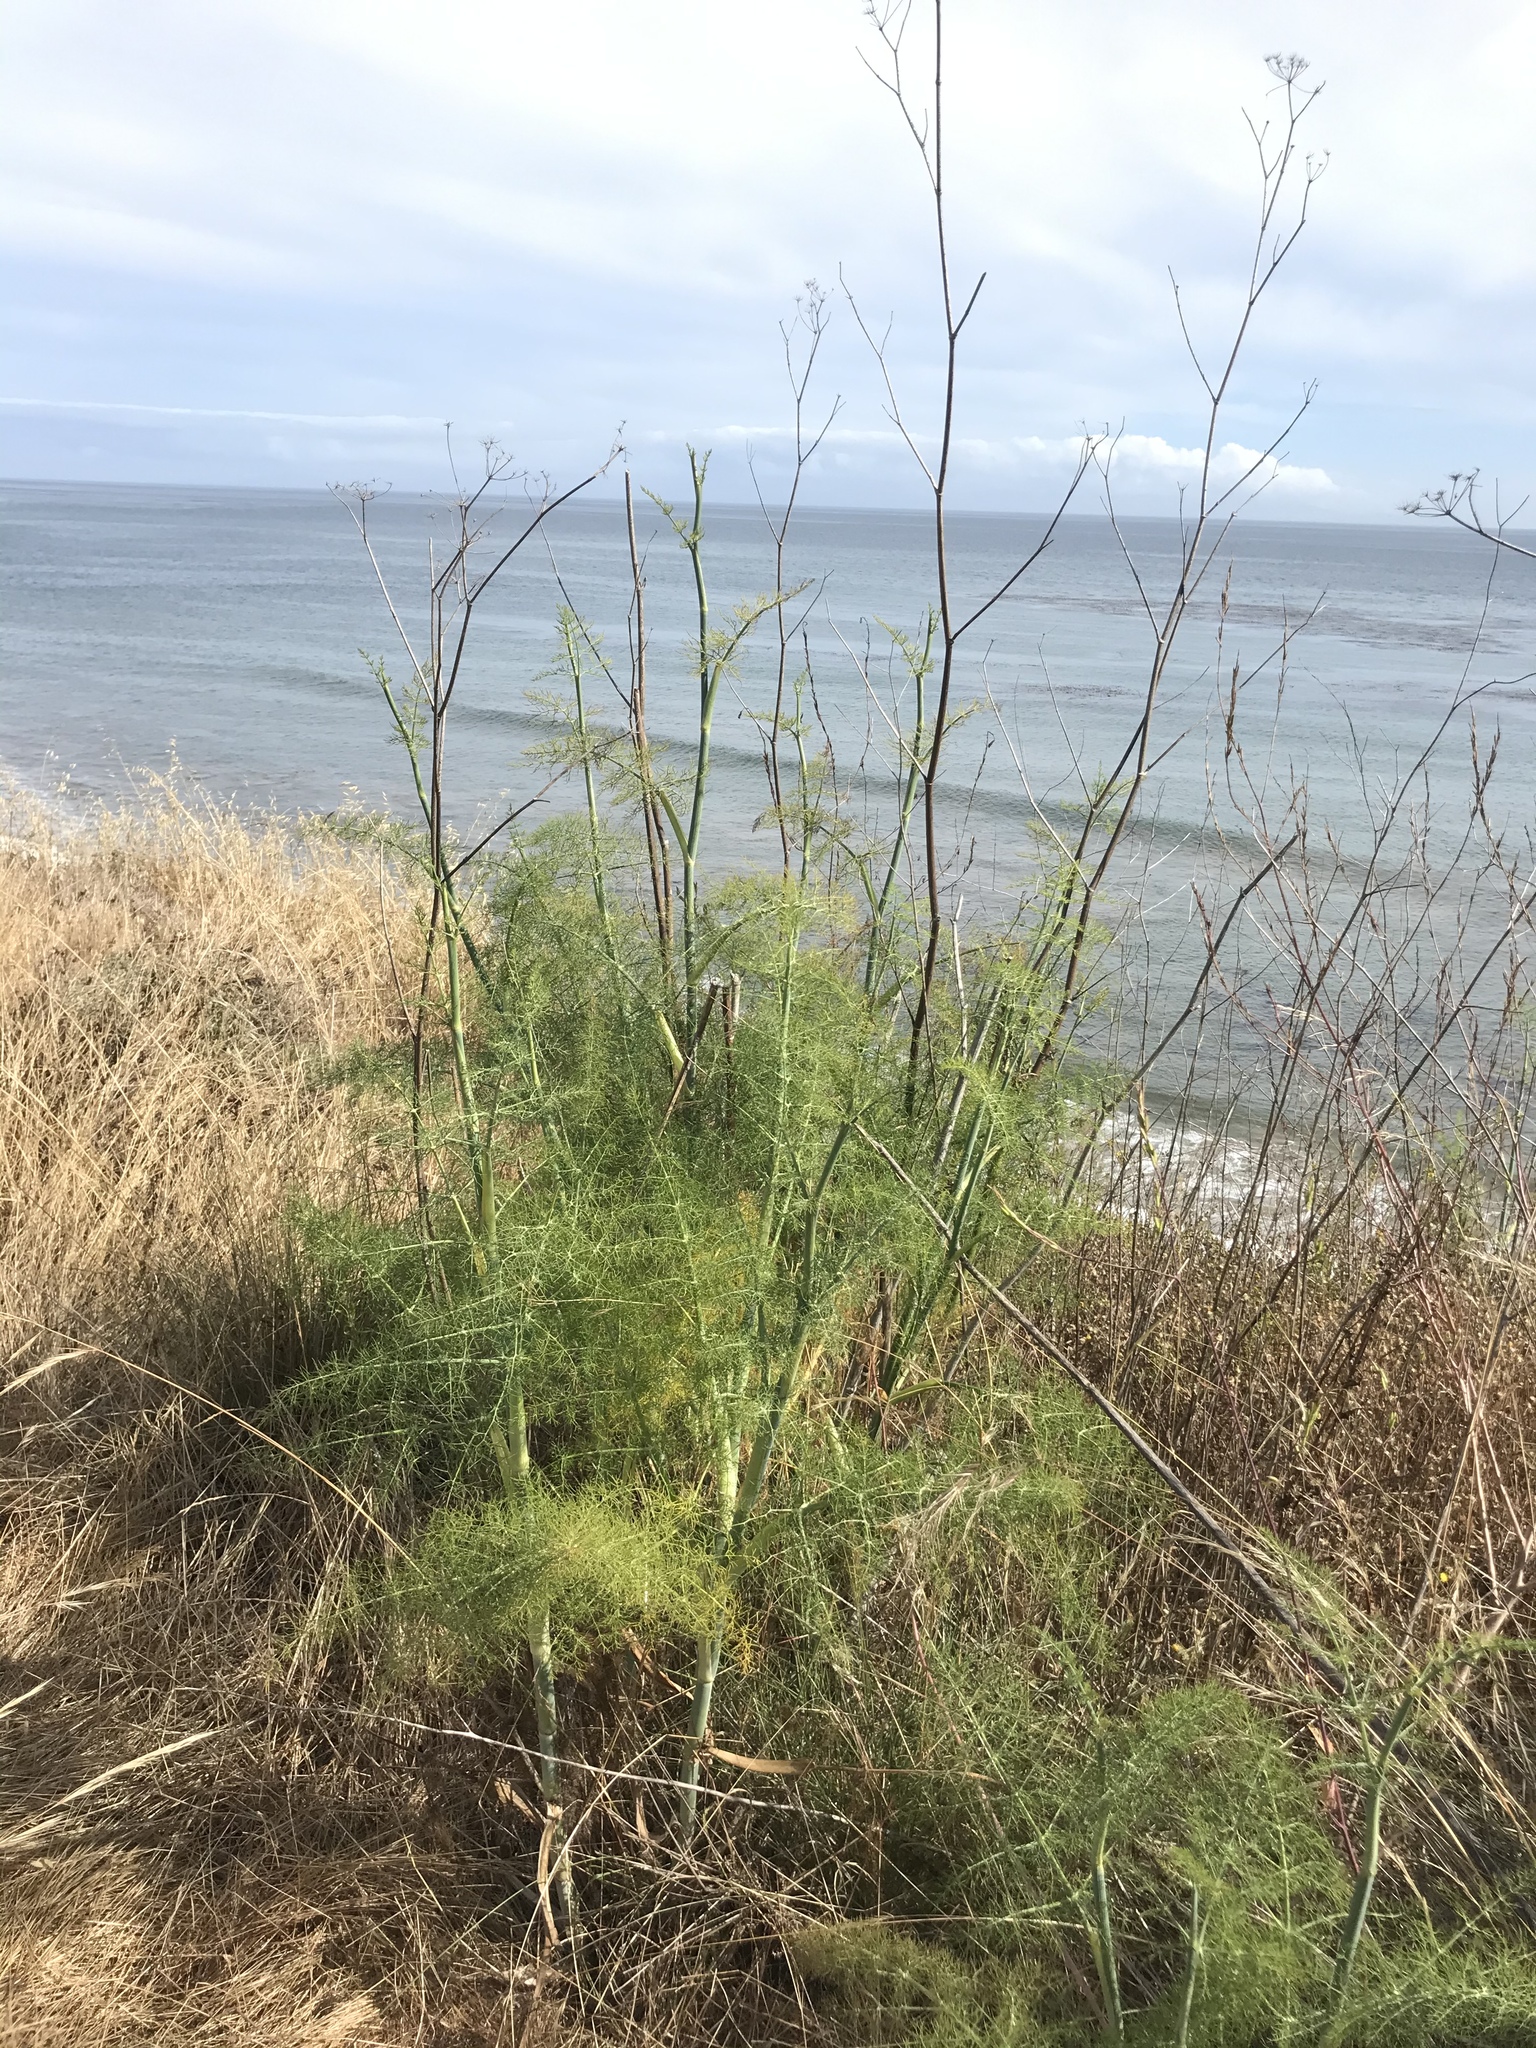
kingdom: Plantae
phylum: Tracheophyta
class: Magnoliopsida
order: Apiales
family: Apiaceae
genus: Foeniculum
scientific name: Foeniculum vulgare
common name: Fennel
